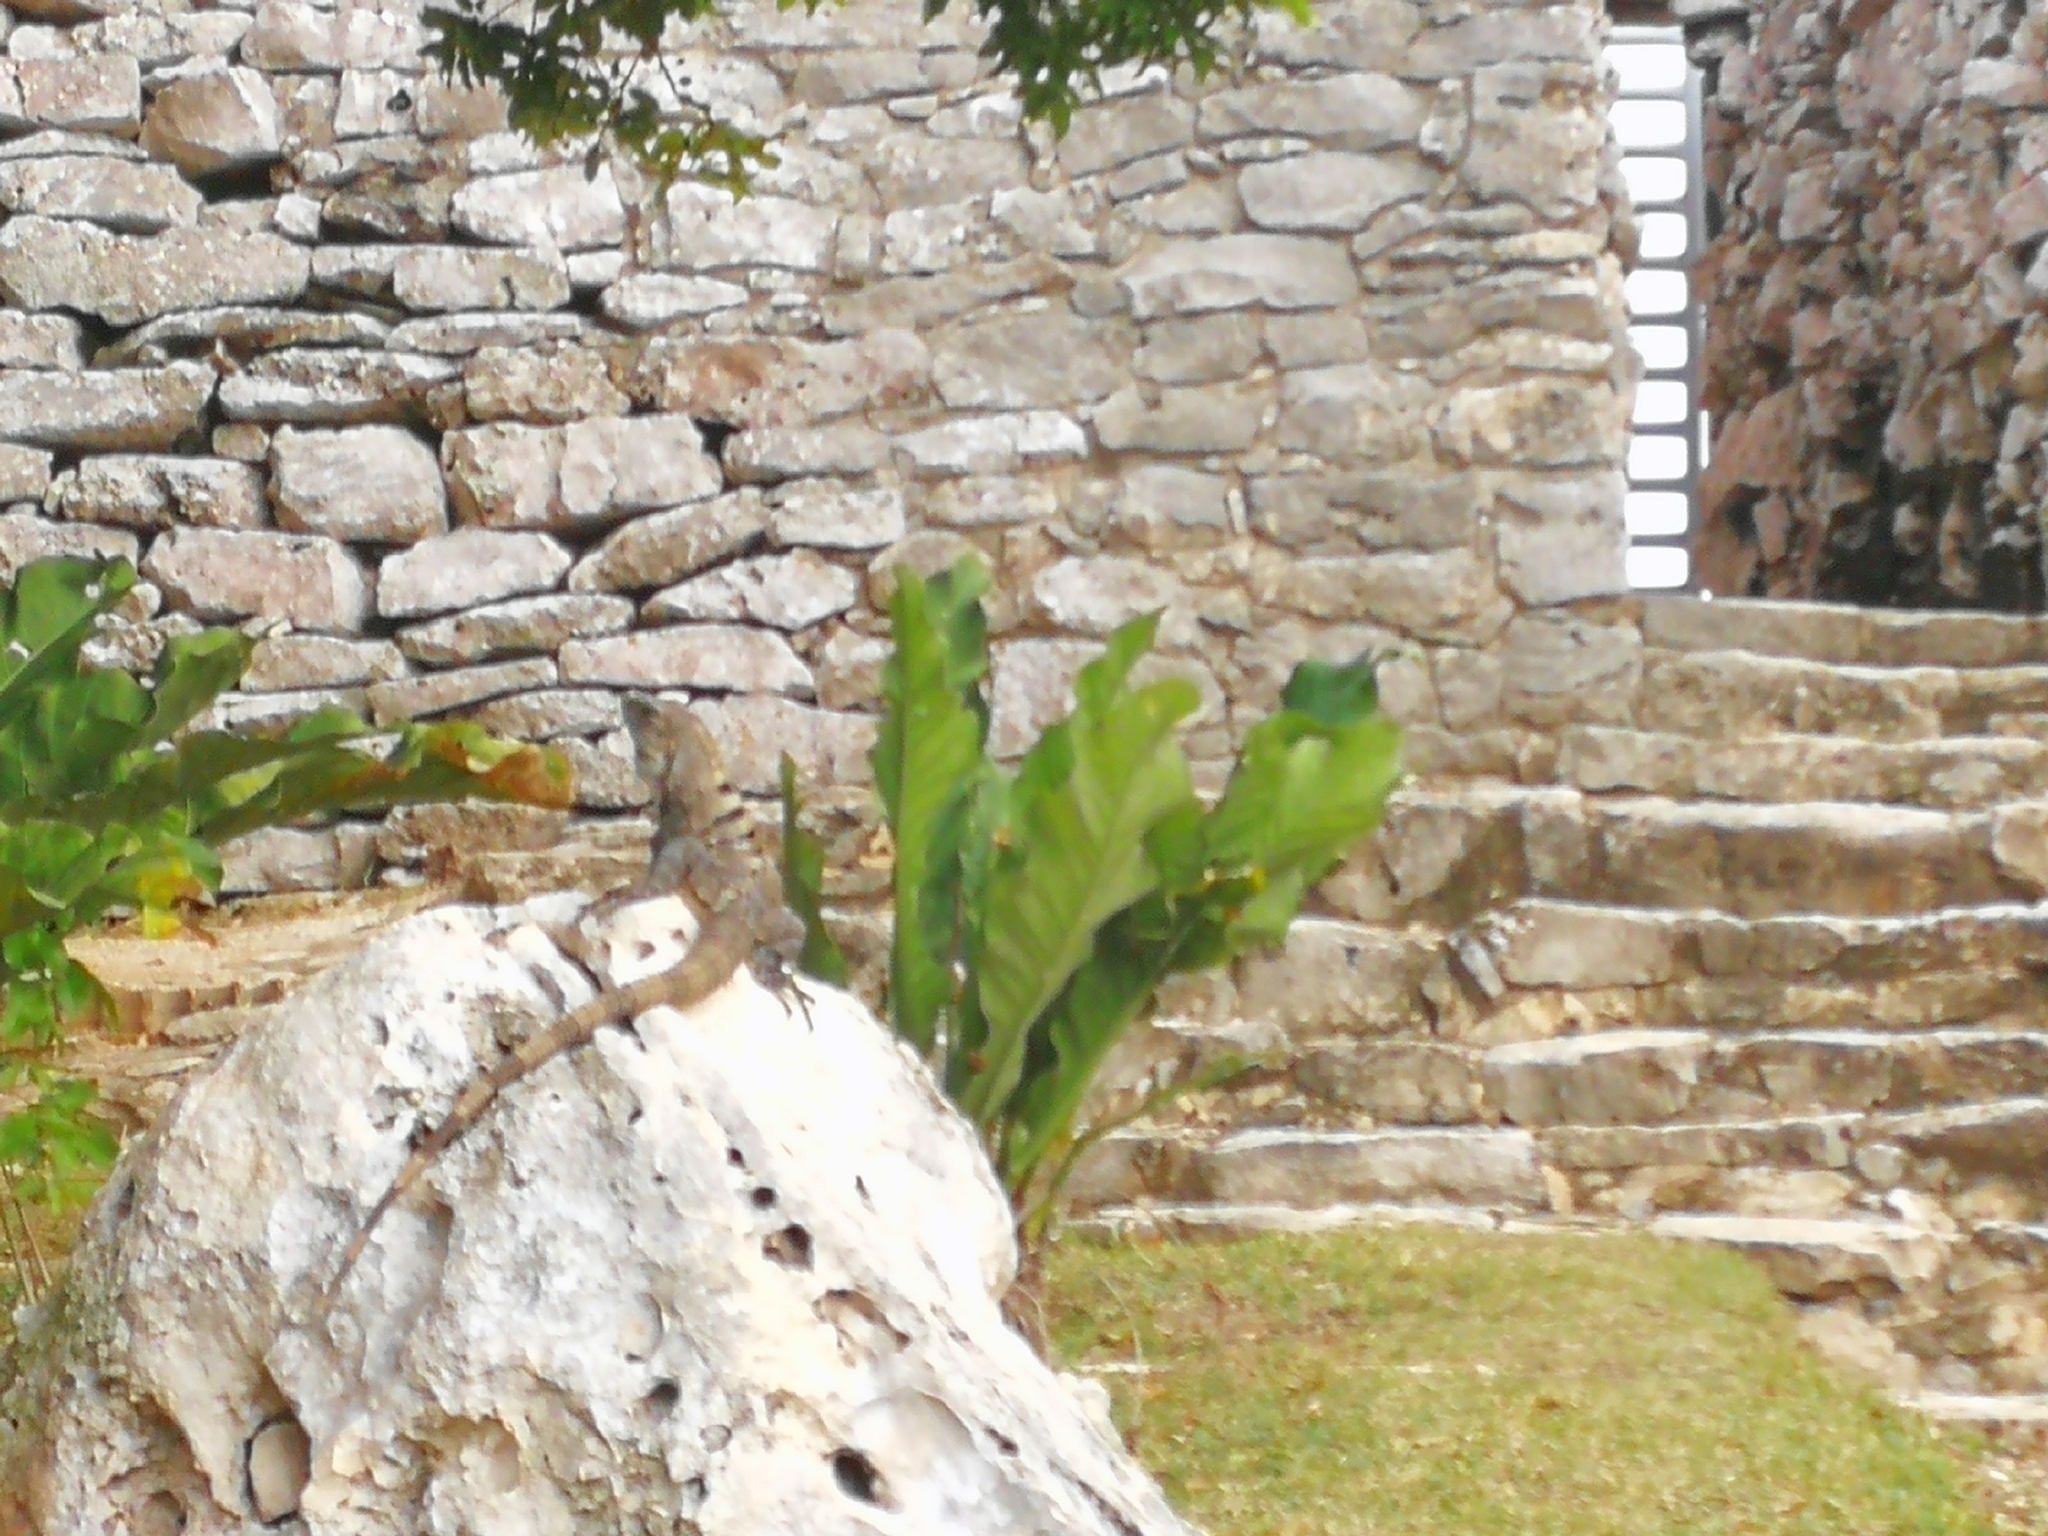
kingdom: Animalia
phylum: Chordata
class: Squamata
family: Iguanidae
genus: Ctenosaura
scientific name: Ctenosaura similis
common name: Black spiny-tailed iguana
